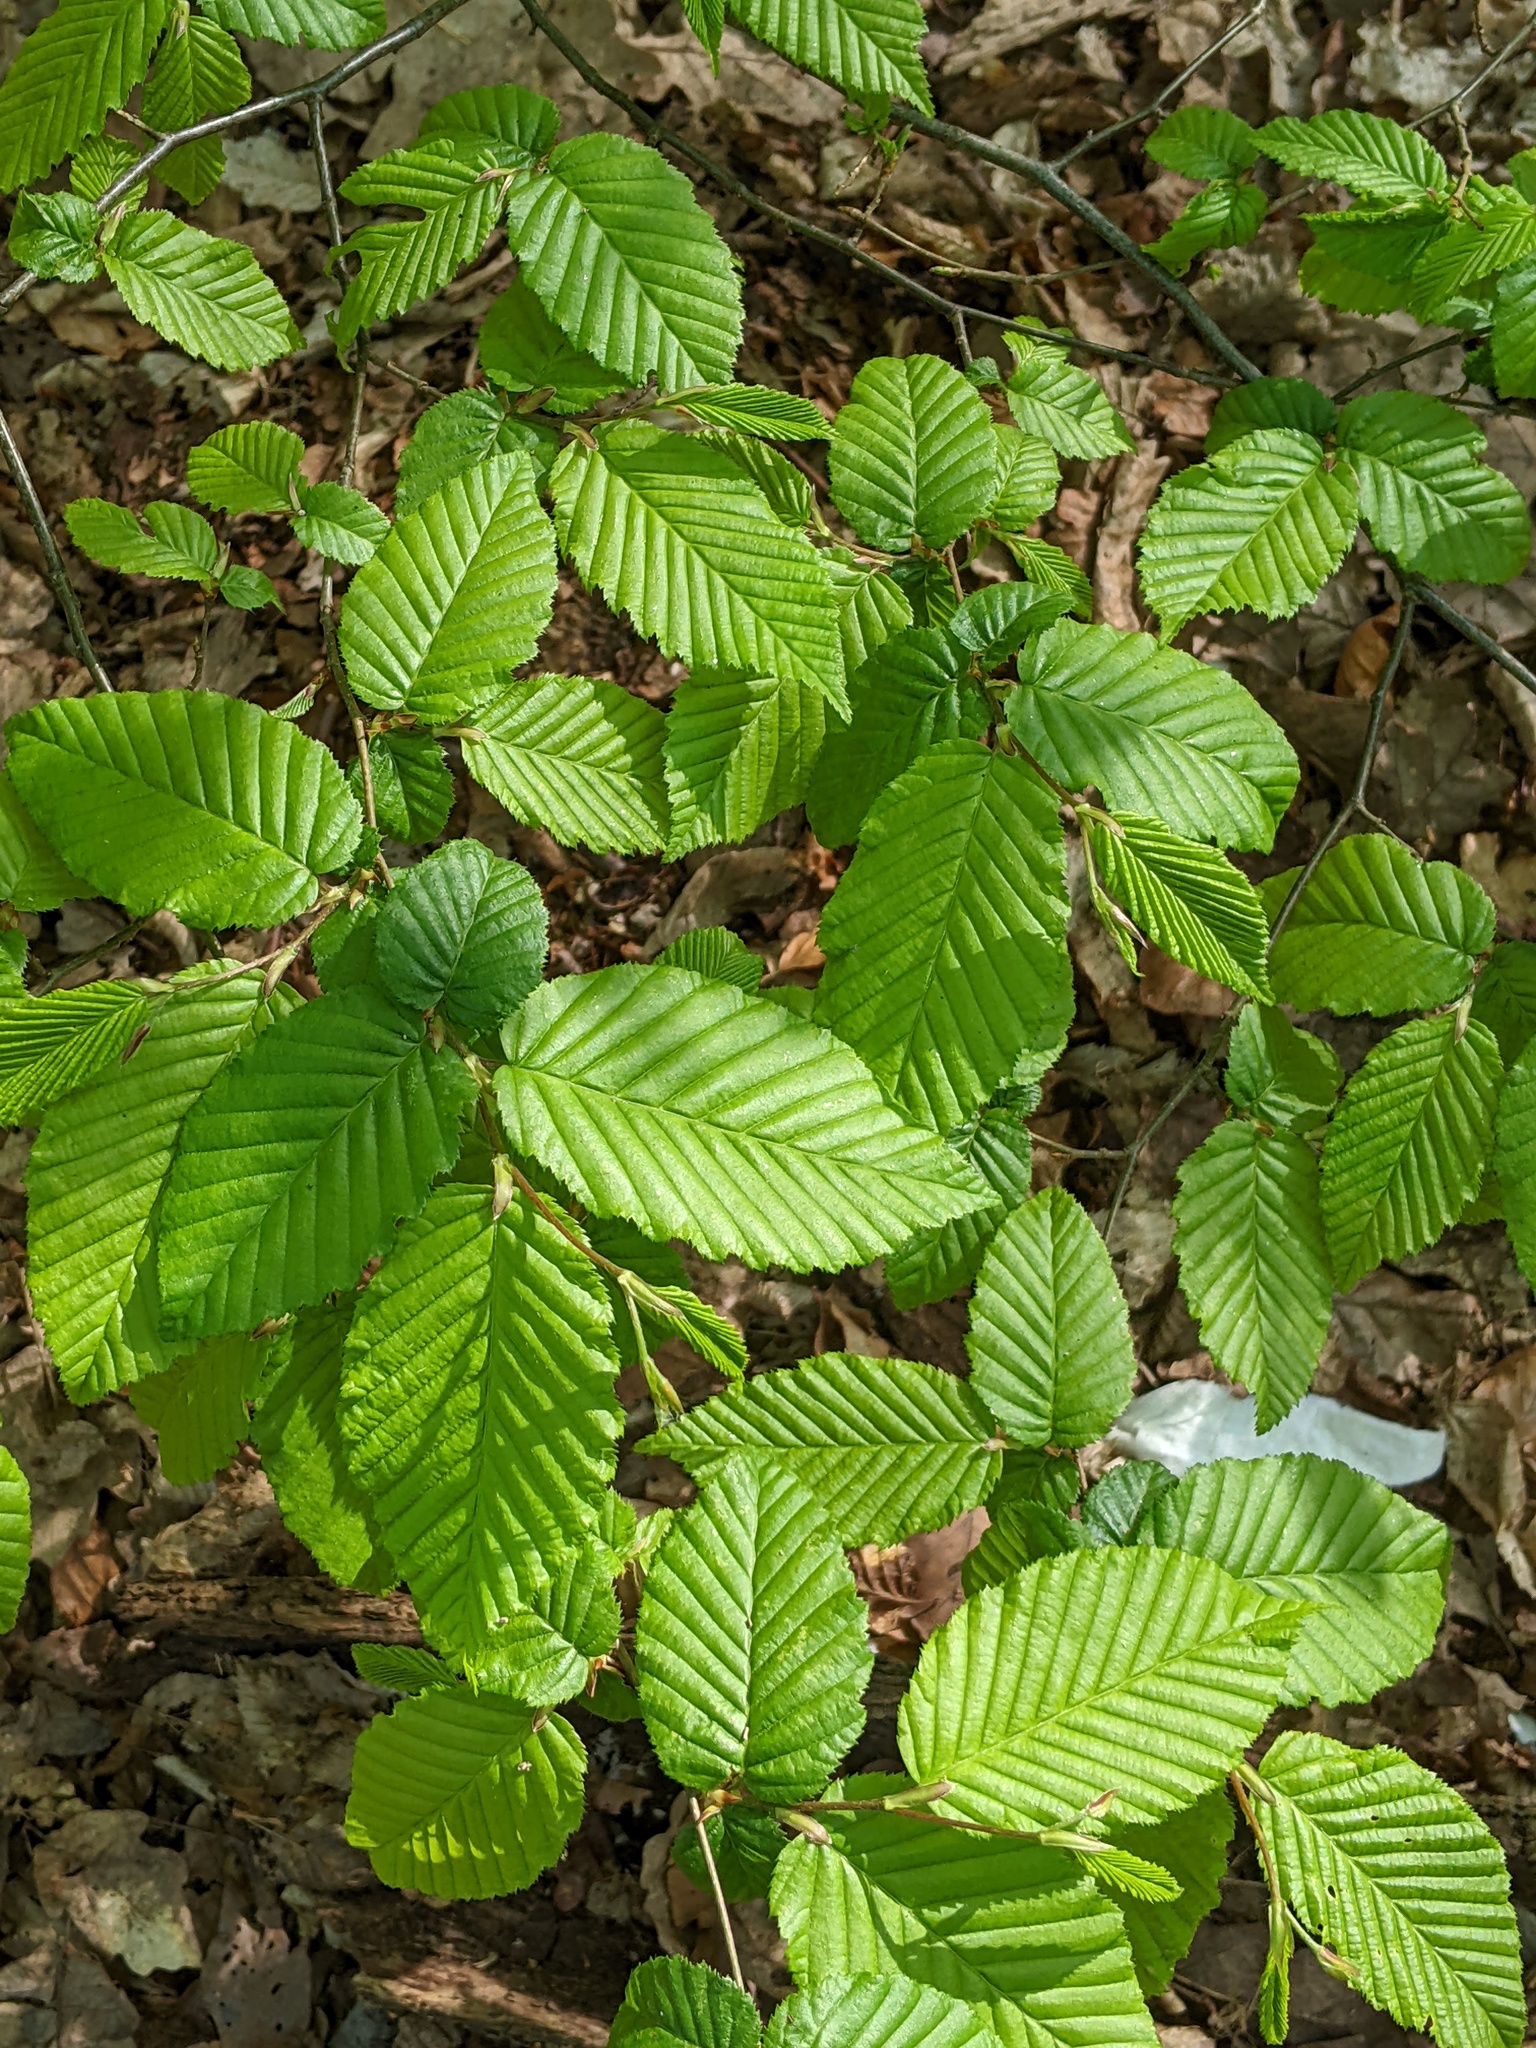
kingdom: Plantae
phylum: Tracheophyta
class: Magnoliopsida
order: Fagales
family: Betulaceae
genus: Carpinus
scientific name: Carpinus betulus
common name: Hornbeam
